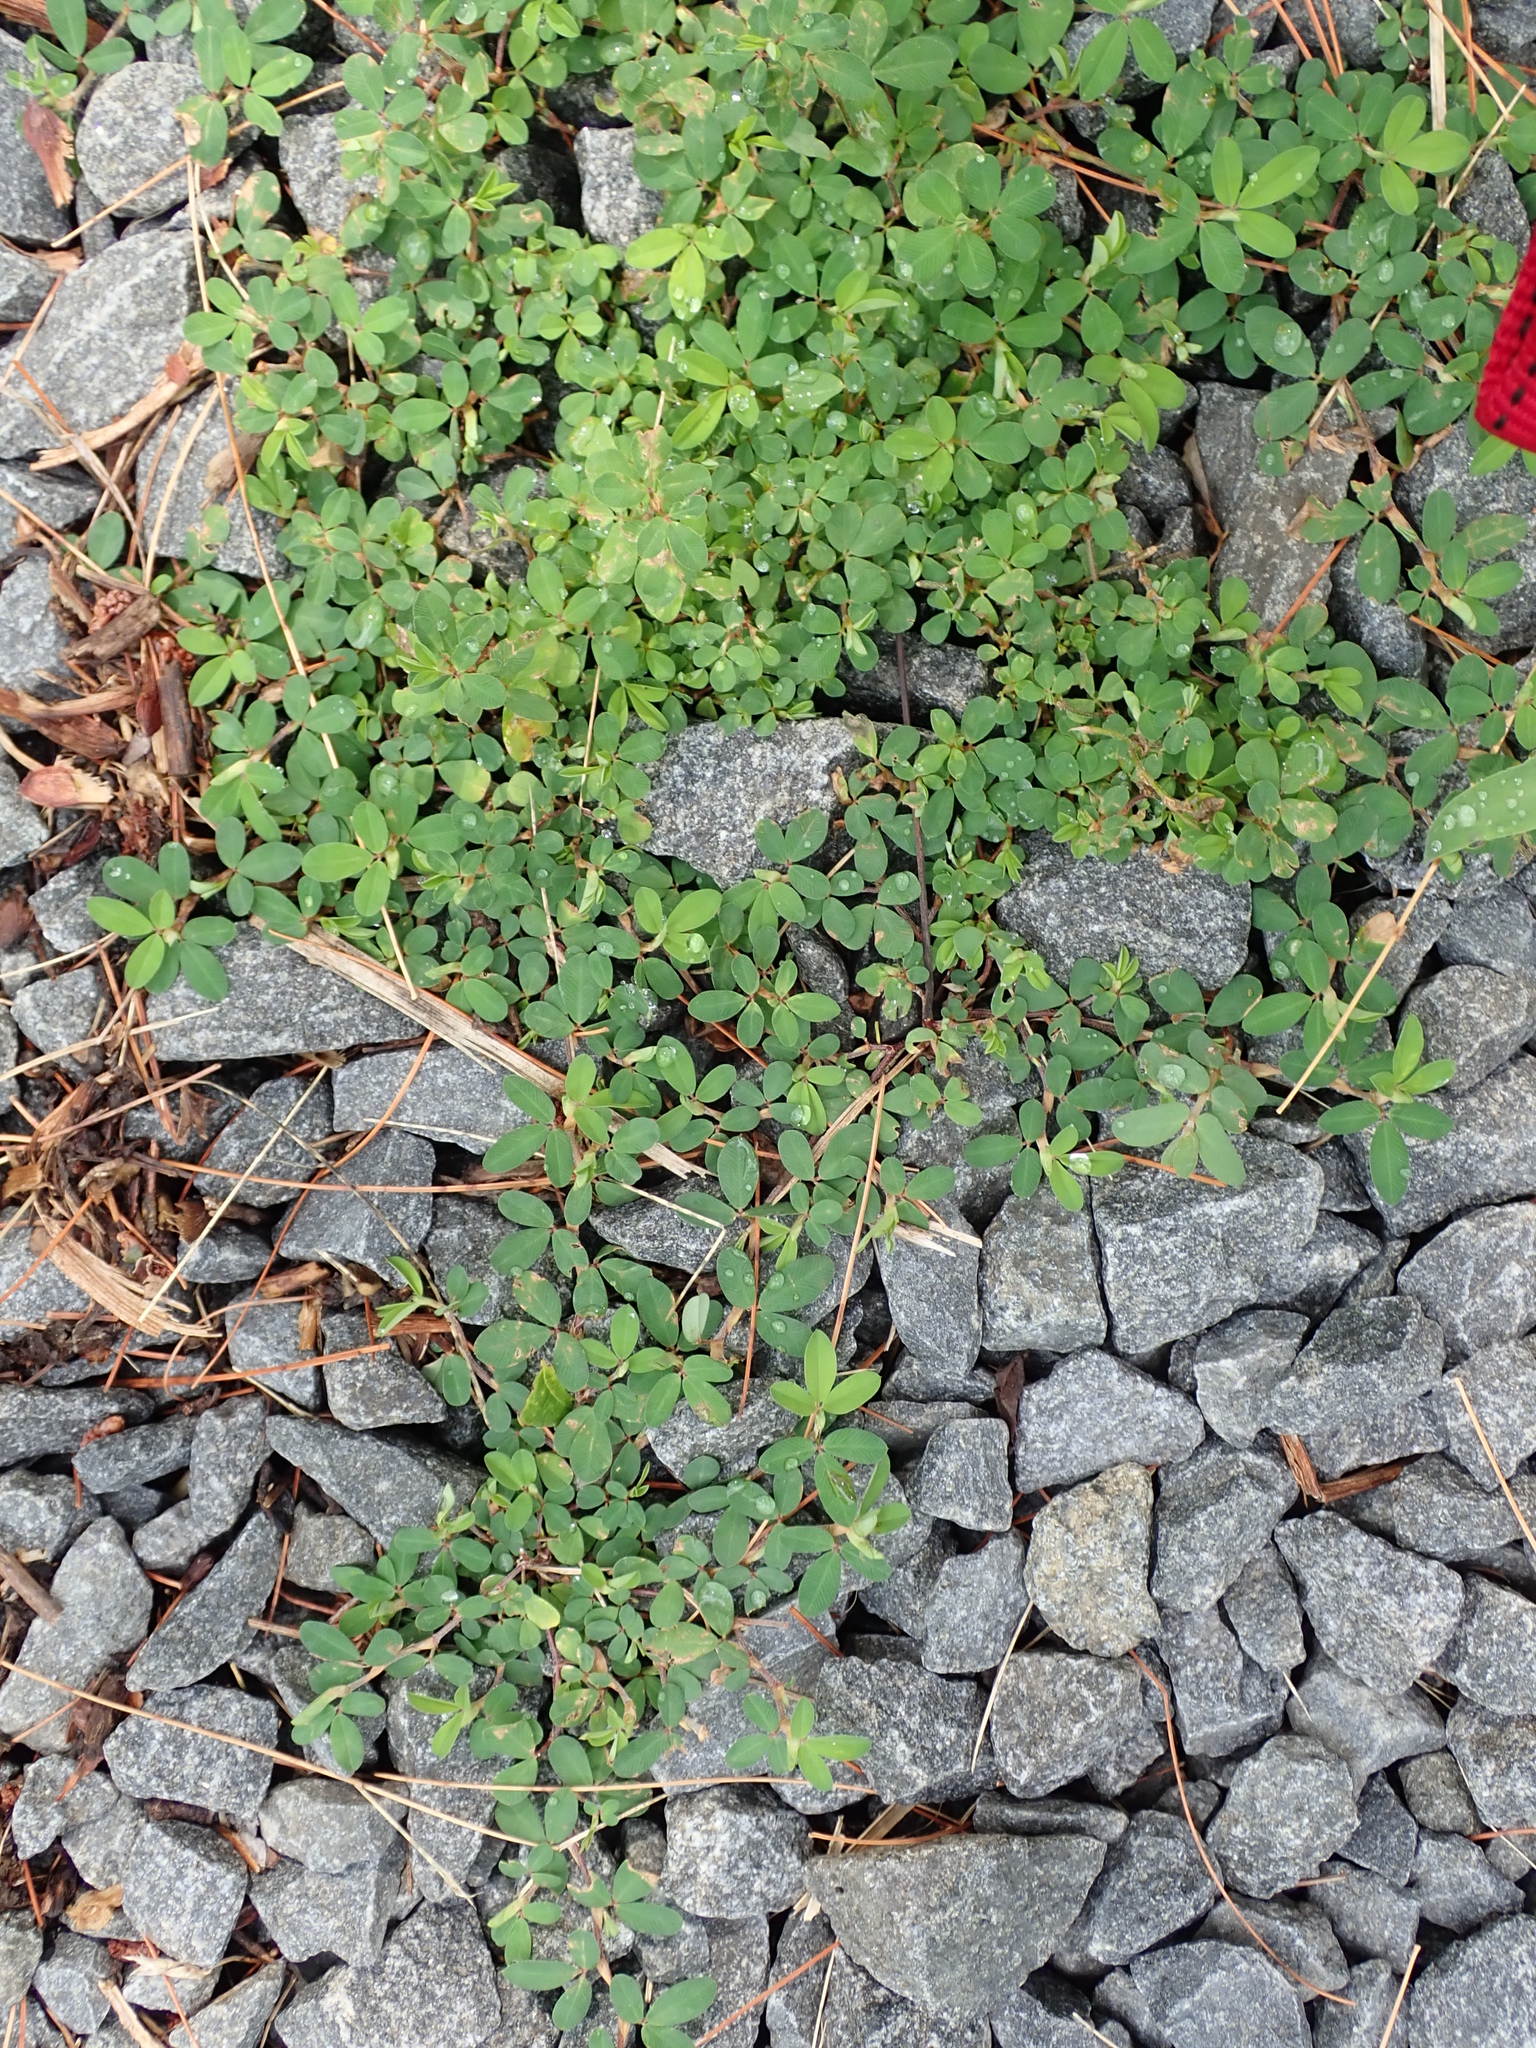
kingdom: Plantae
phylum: Tracheophyta
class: Magnoliopsida
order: Fabales
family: Fabaceae
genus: Kummerowia
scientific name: Kummerowia striata
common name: Japanese clover
